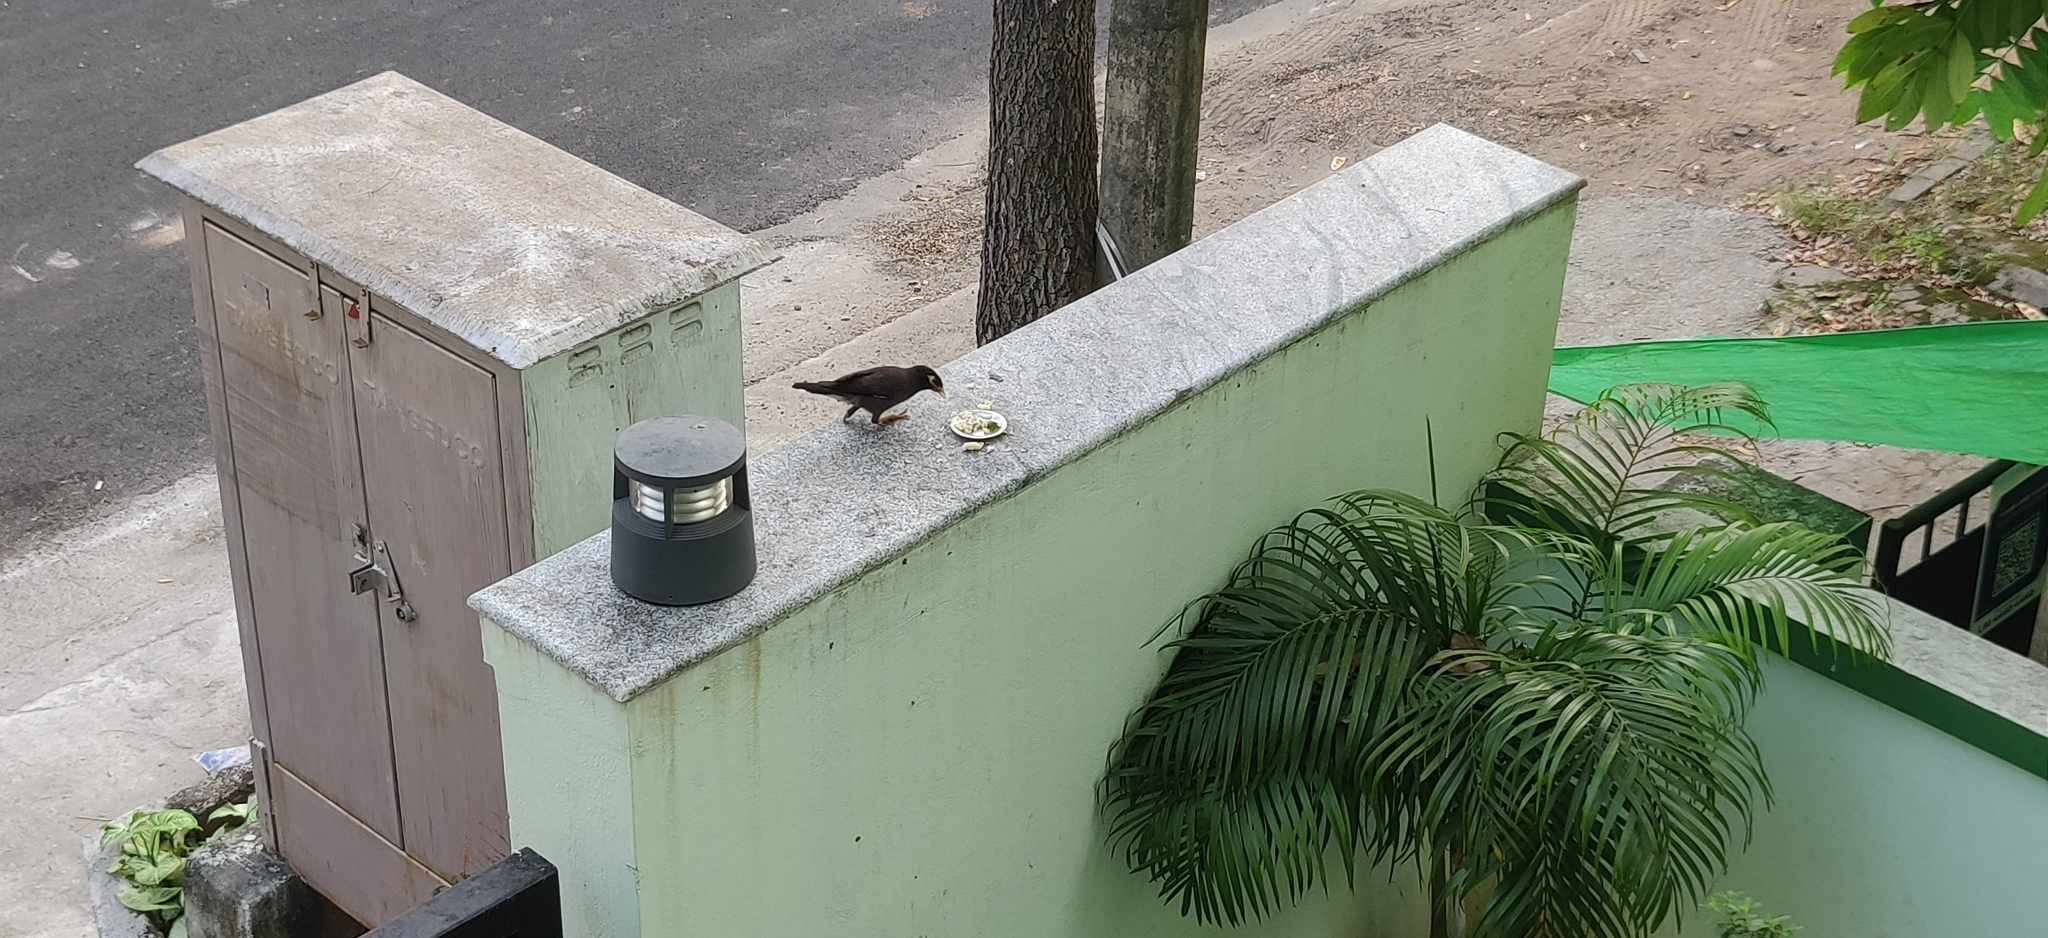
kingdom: Animalia
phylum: Chordata
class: Aves
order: Passeriformes
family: Sturnidae
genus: Acridotheres
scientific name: Acridotheres tristis
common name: Common myna
